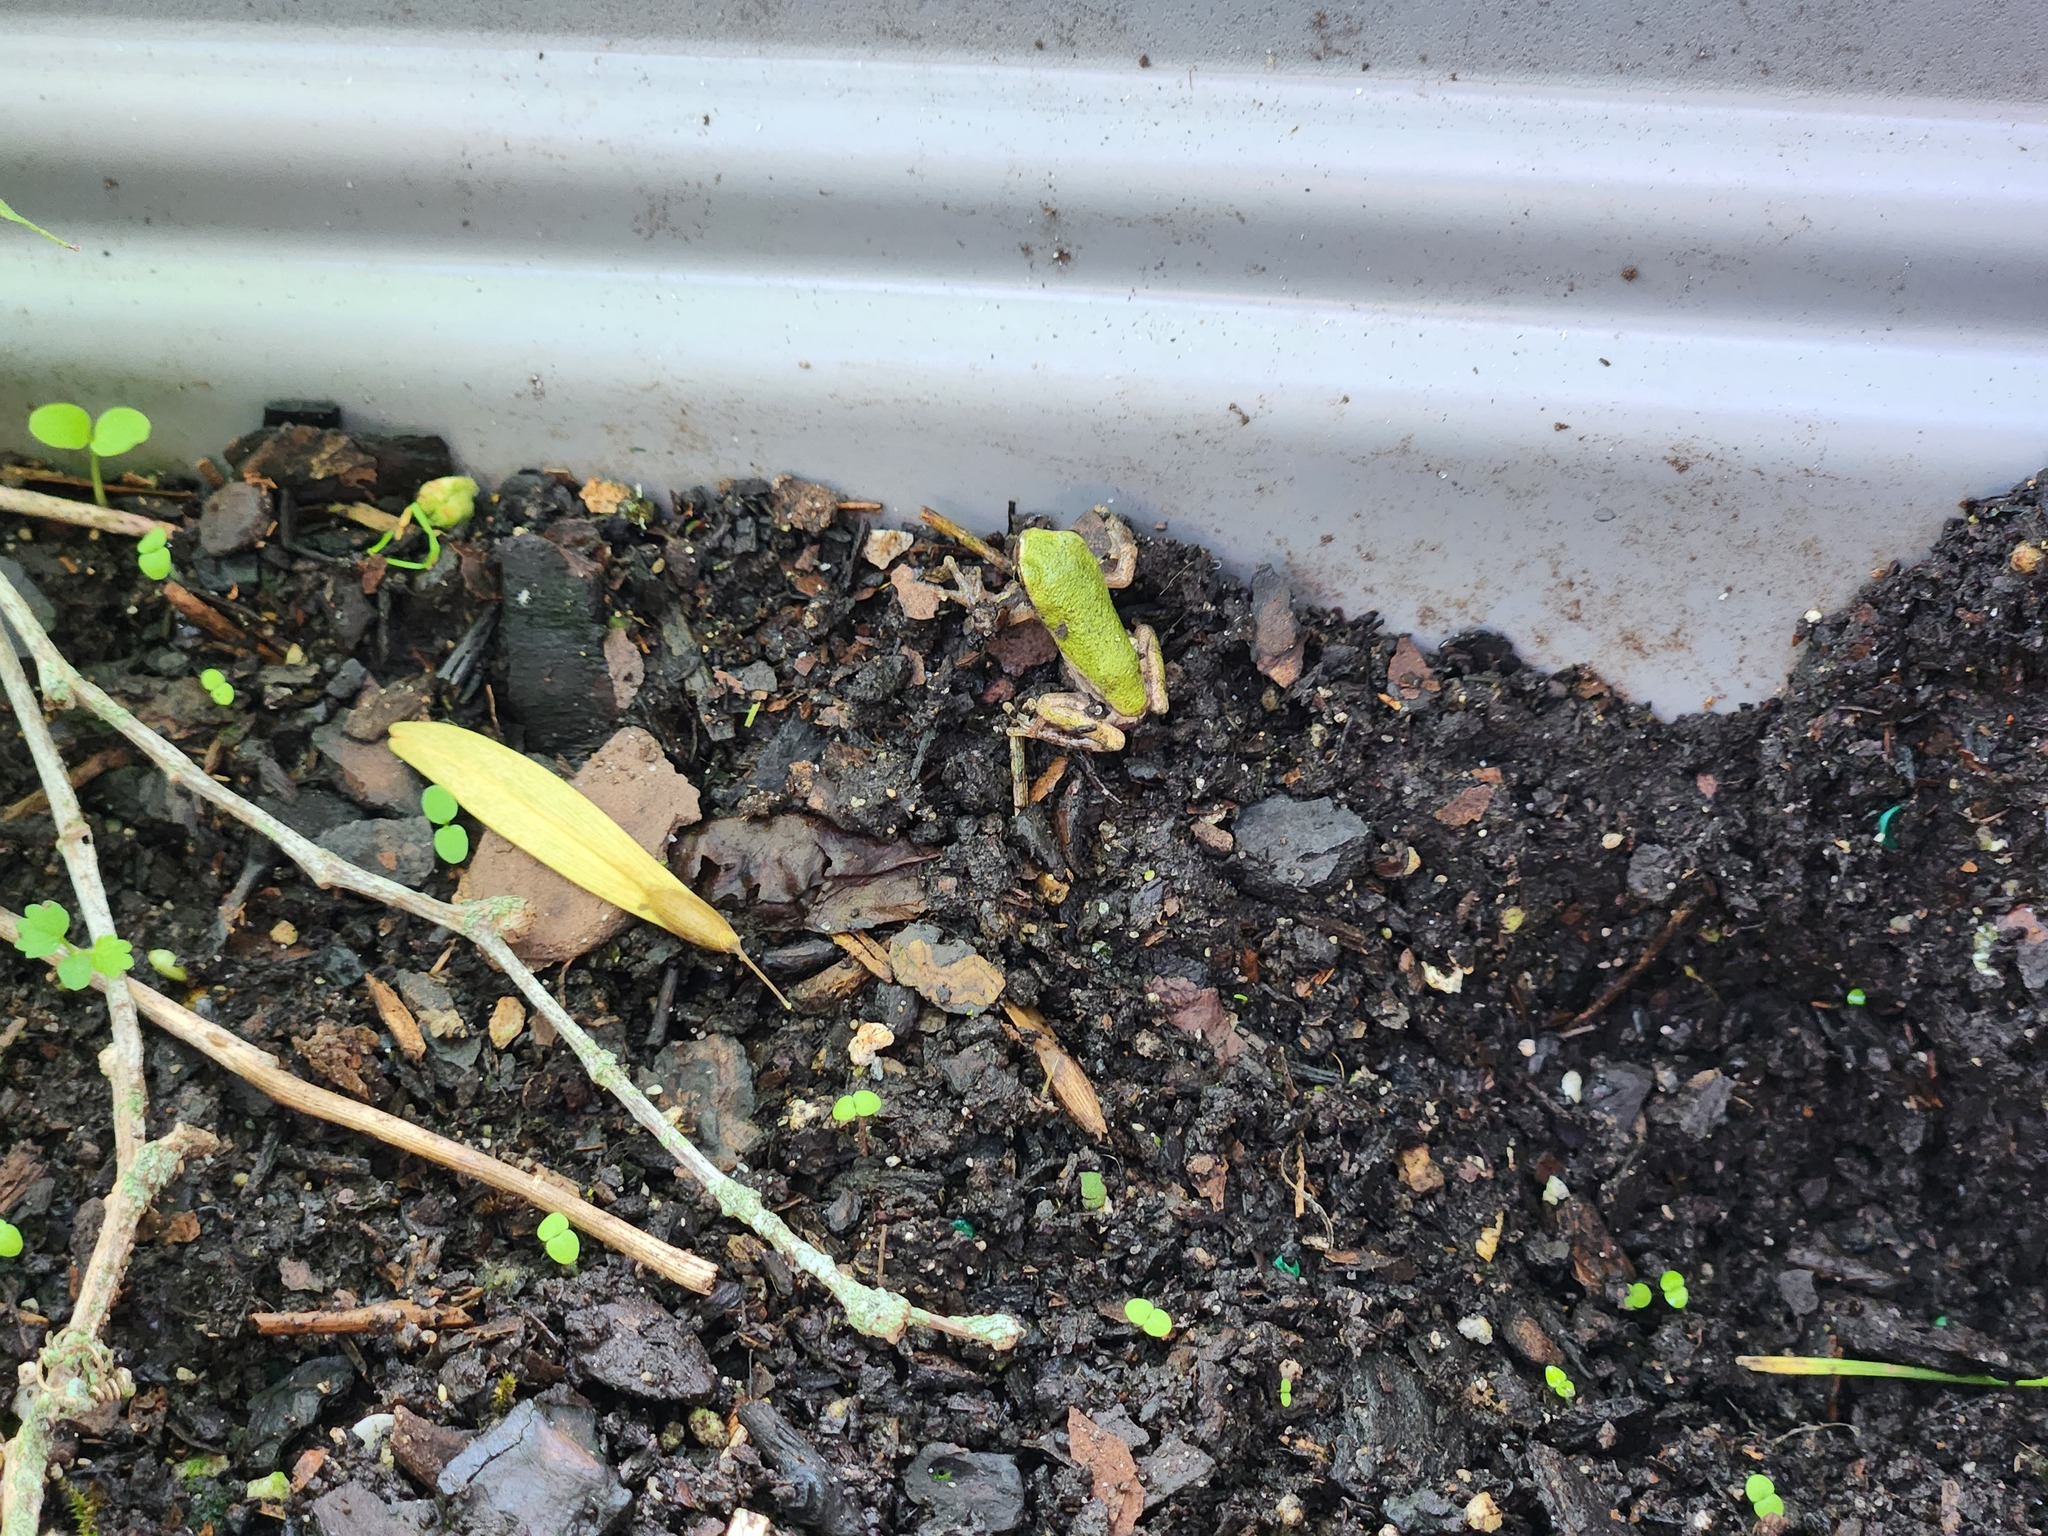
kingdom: Animalia
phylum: Chordata
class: Amphibia
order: Anura
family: Hylidae
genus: Dryophytes
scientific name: Dryophytes chrysoscelis
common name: Cope's gray treefrog
